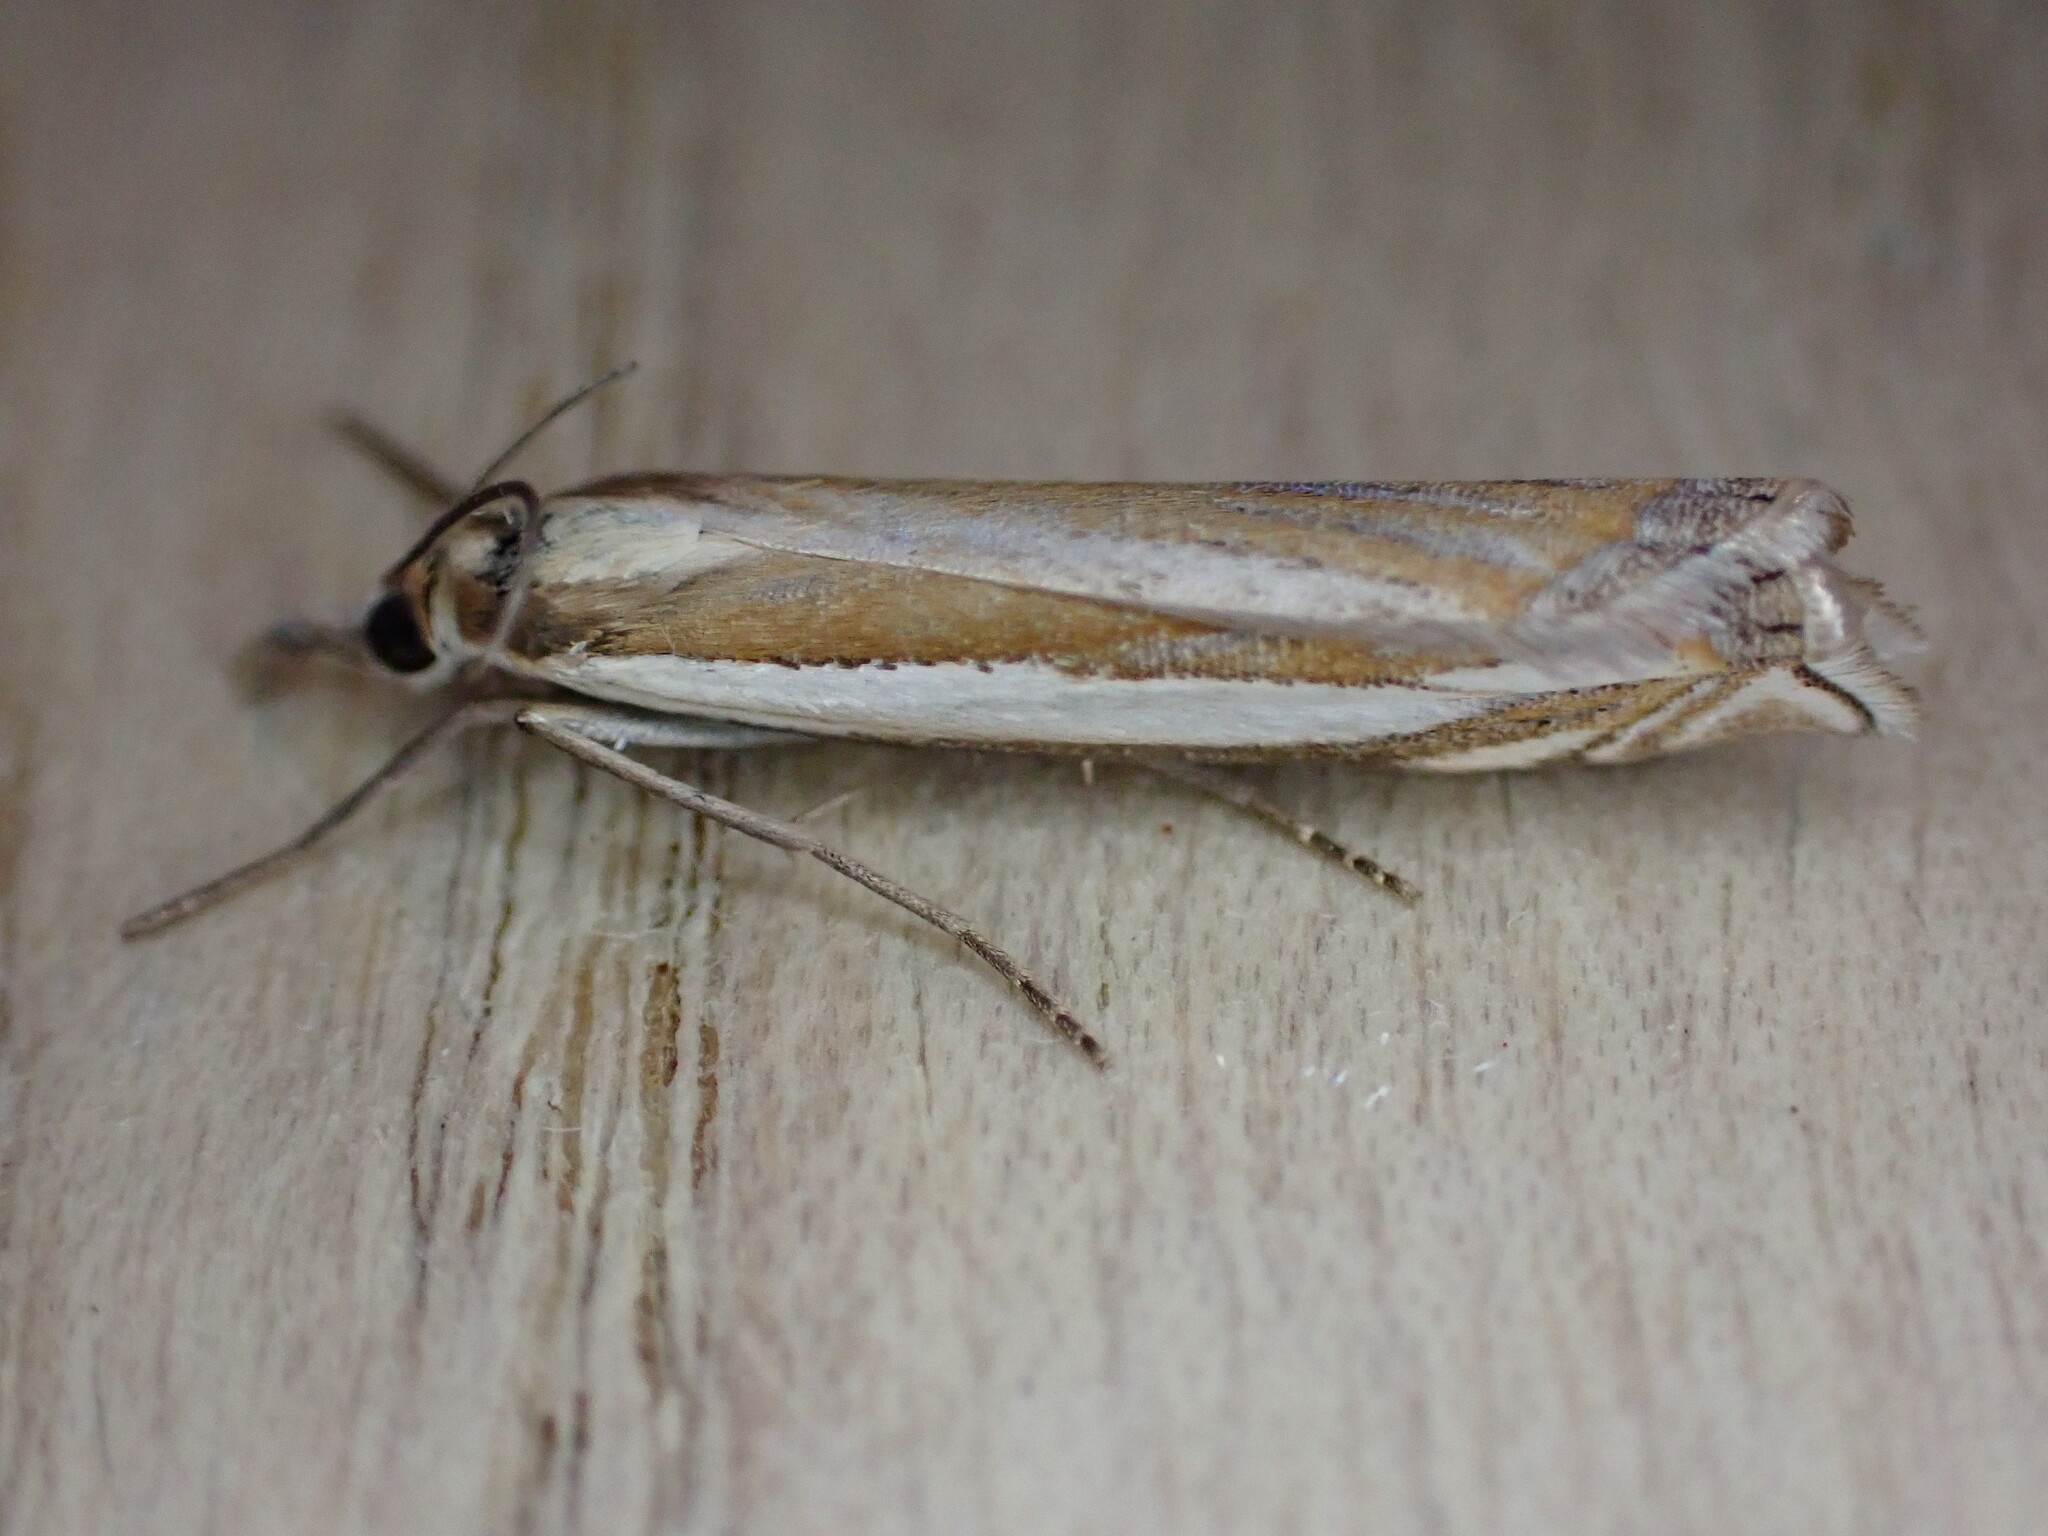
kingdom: Animalia
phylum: Arthropoda
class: Insecta
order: Lepidoptera
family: Crambidae
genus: Crambus
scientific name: Crambus pascuella
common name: Inlaid grass-veneer
